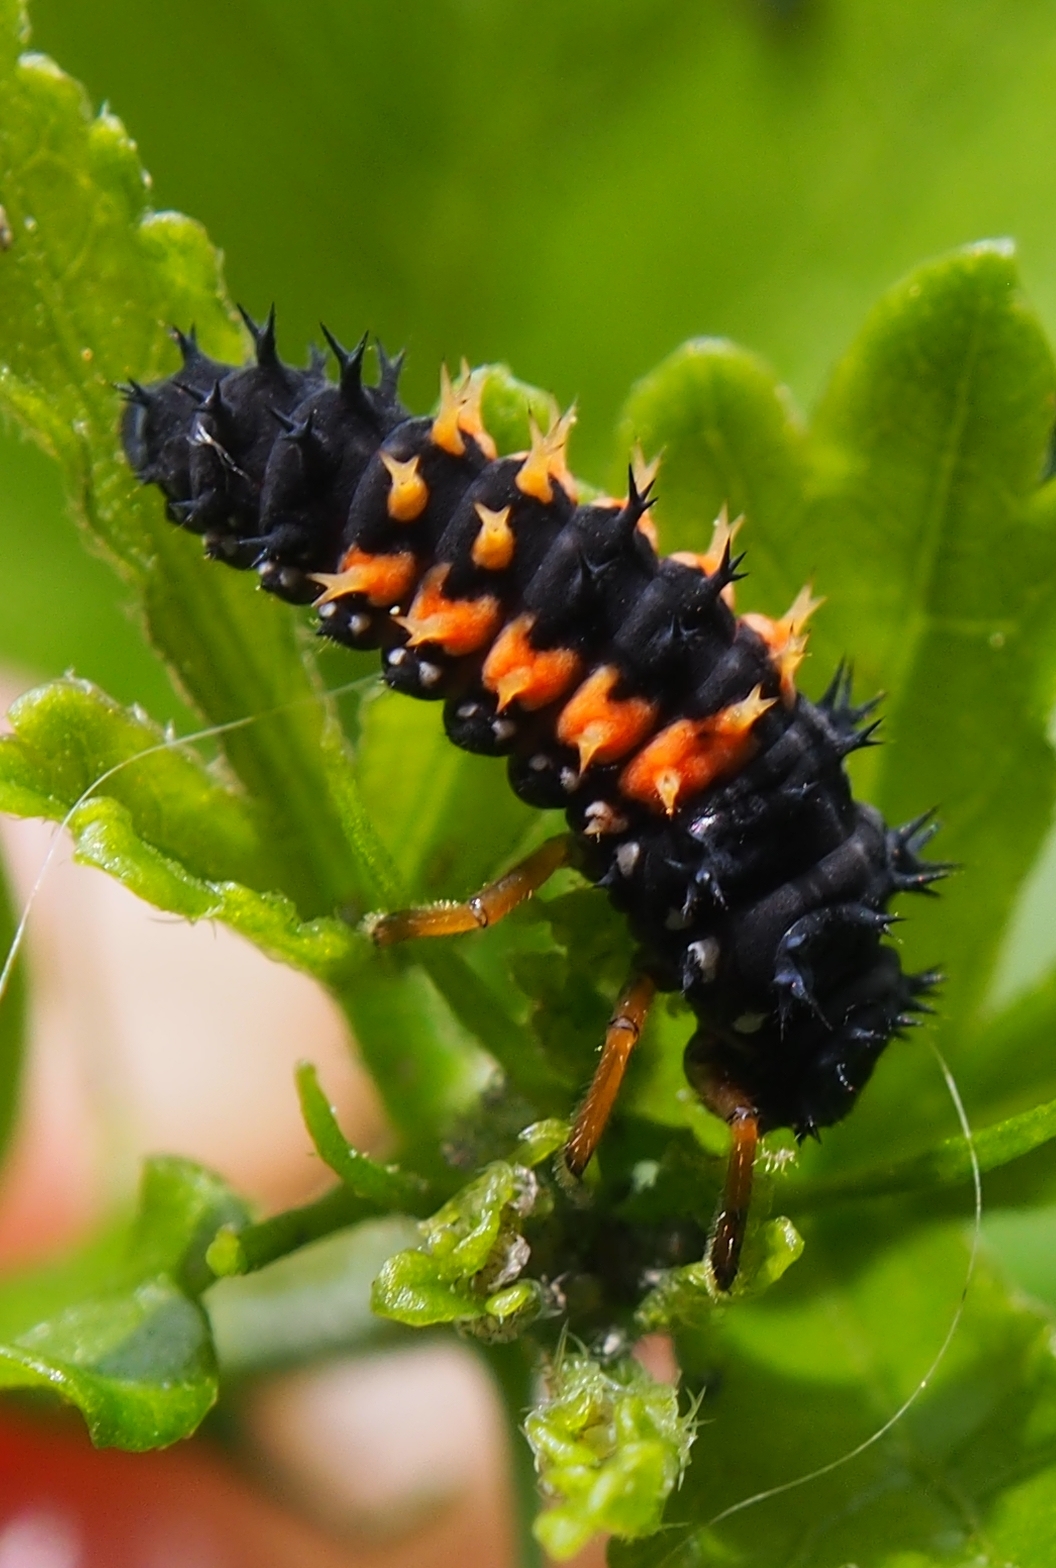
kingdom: Animalia
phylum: Arthropoda
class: Insecta
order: Coleoptera
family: Coccinellidae
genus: Harmonia
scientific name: Harmonia axyridis
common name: Harlequin ladybird
